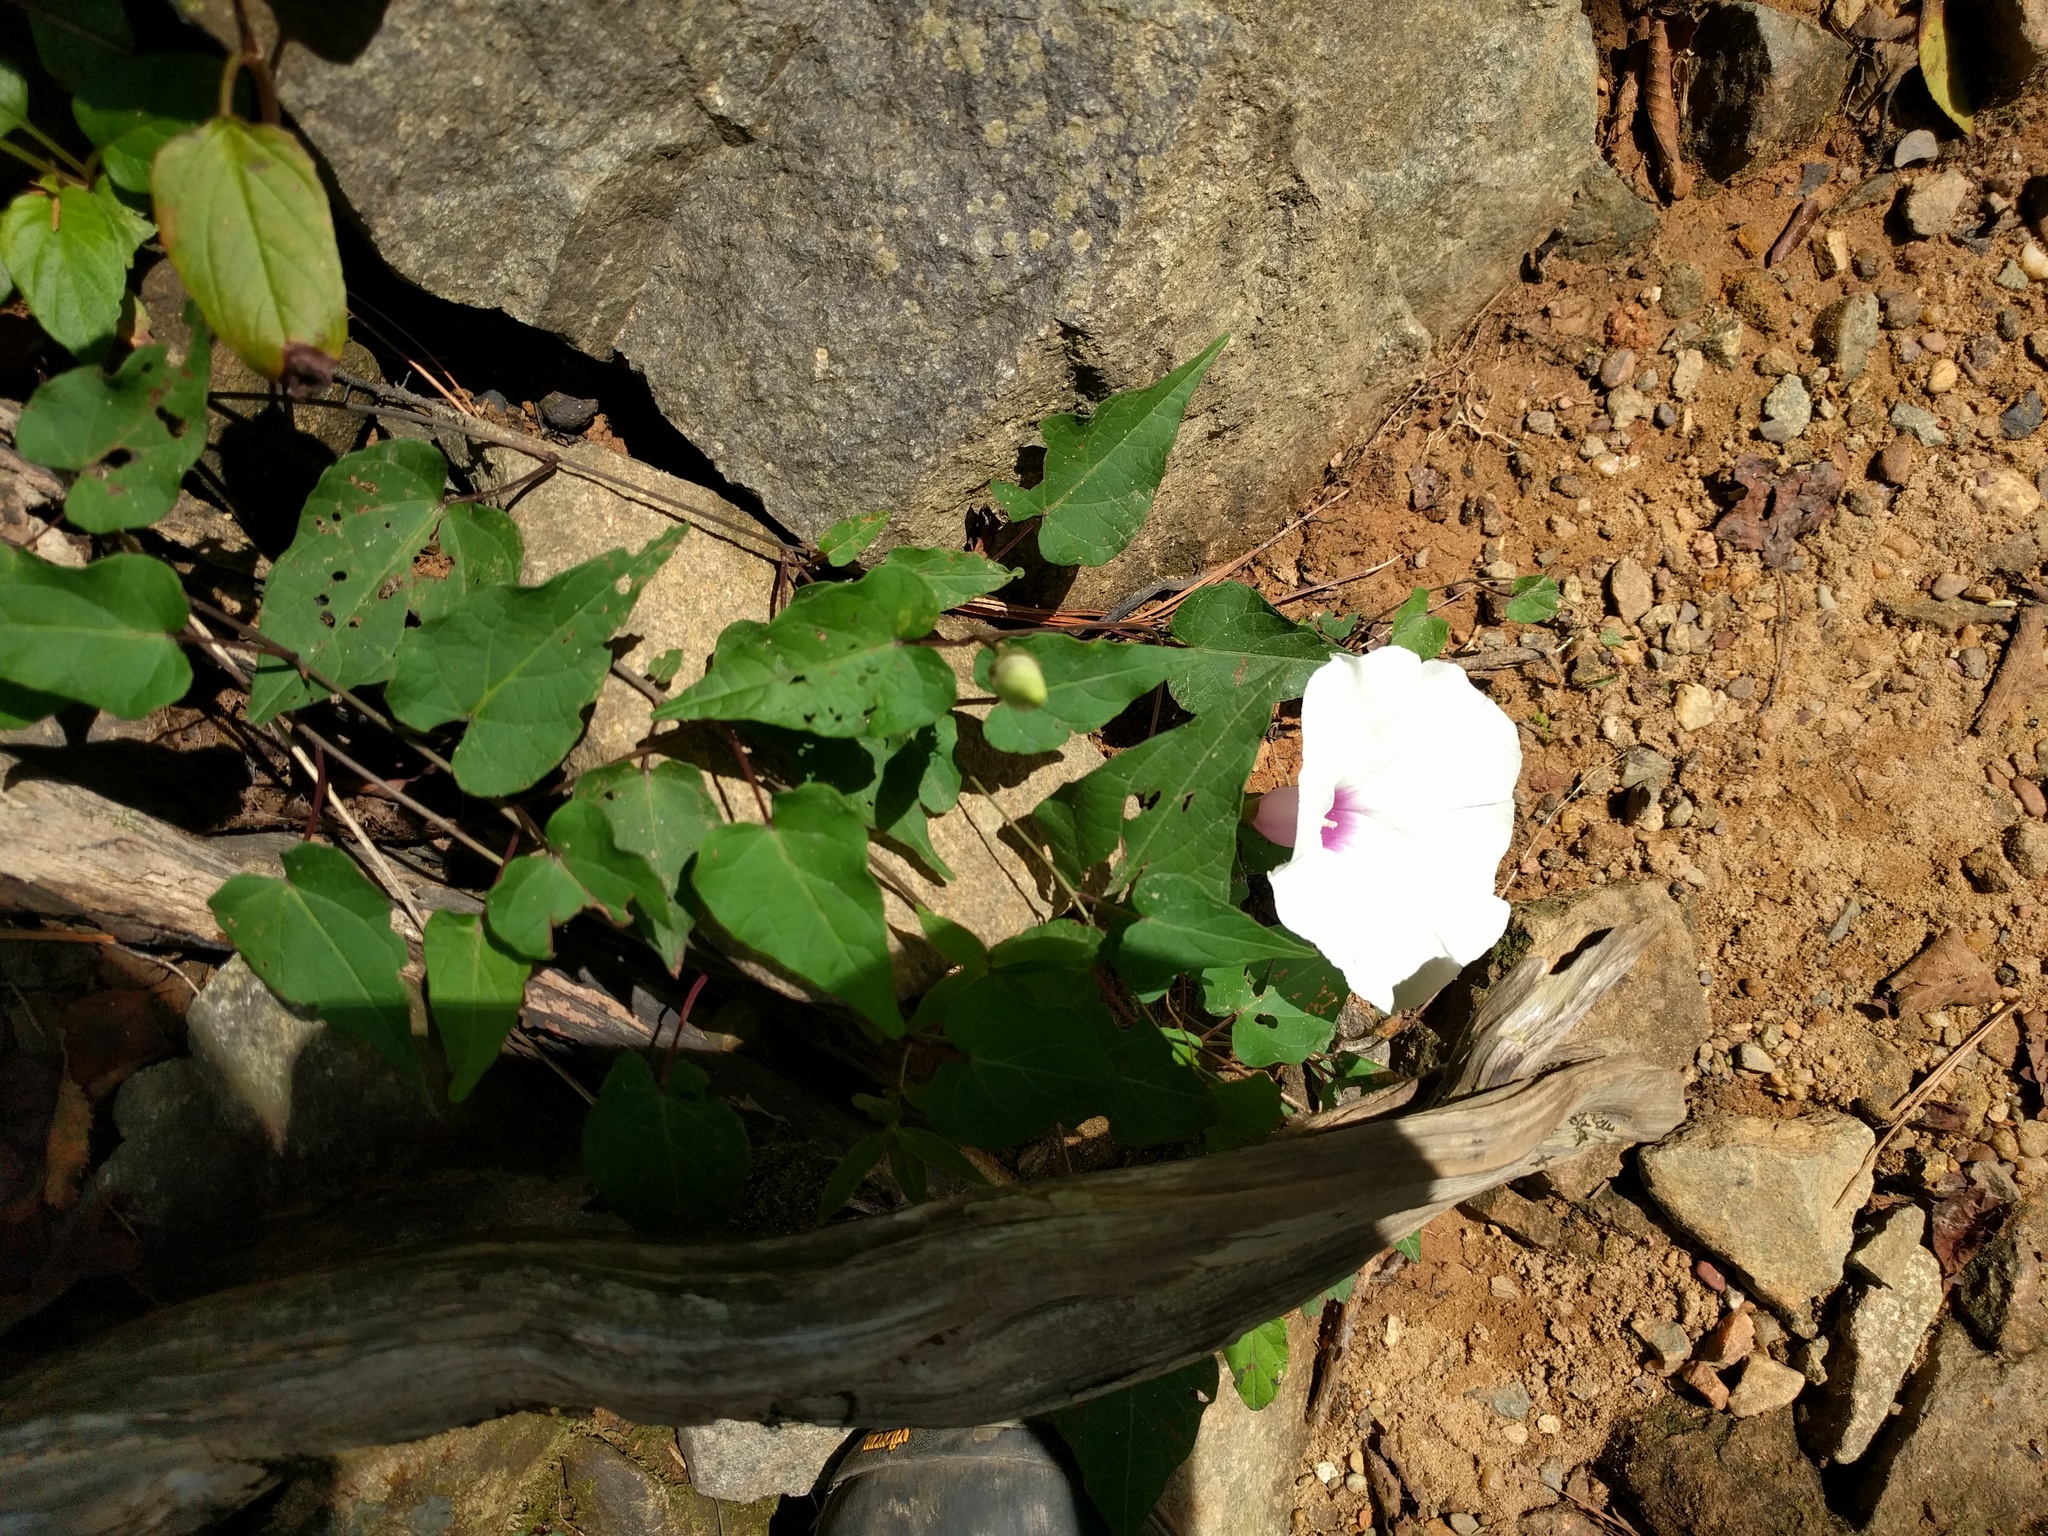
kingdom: Plantae
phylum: Tracheophyta
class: Magnoliopsida
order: Solanales
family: Convolvulaceae
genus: Ipomoea
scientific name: Ipomoea pandurata
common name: Man-of-the-earth
